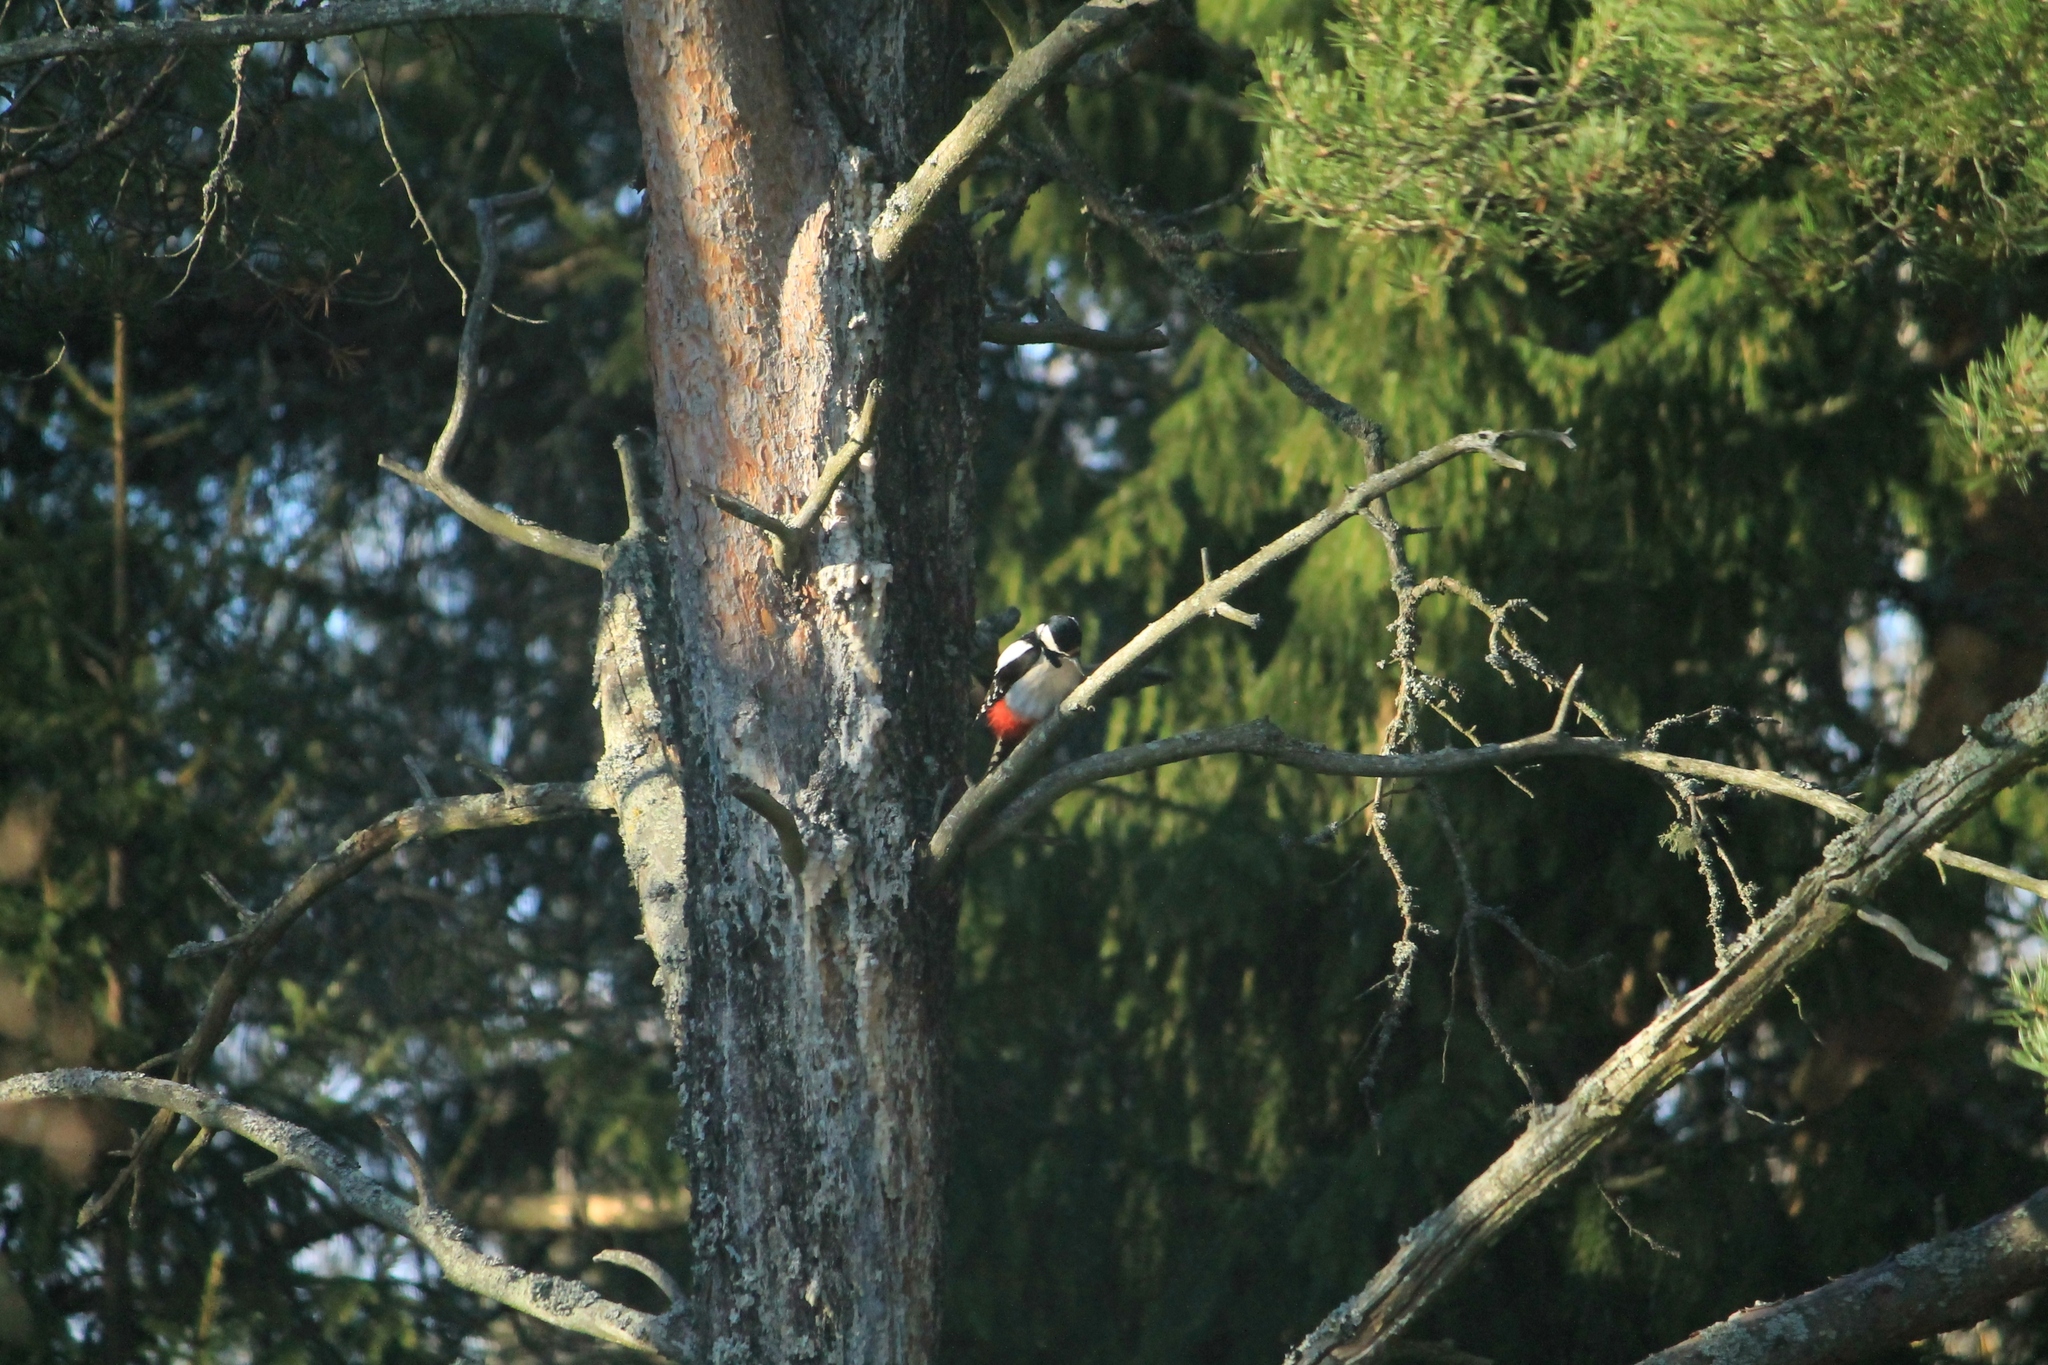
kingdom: Animalia
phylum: Chordata
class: Aves
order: Piciformes
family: Picidae
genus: Dendrocopos
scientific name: Dendrocopos major
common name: Great spotted woodpecker
